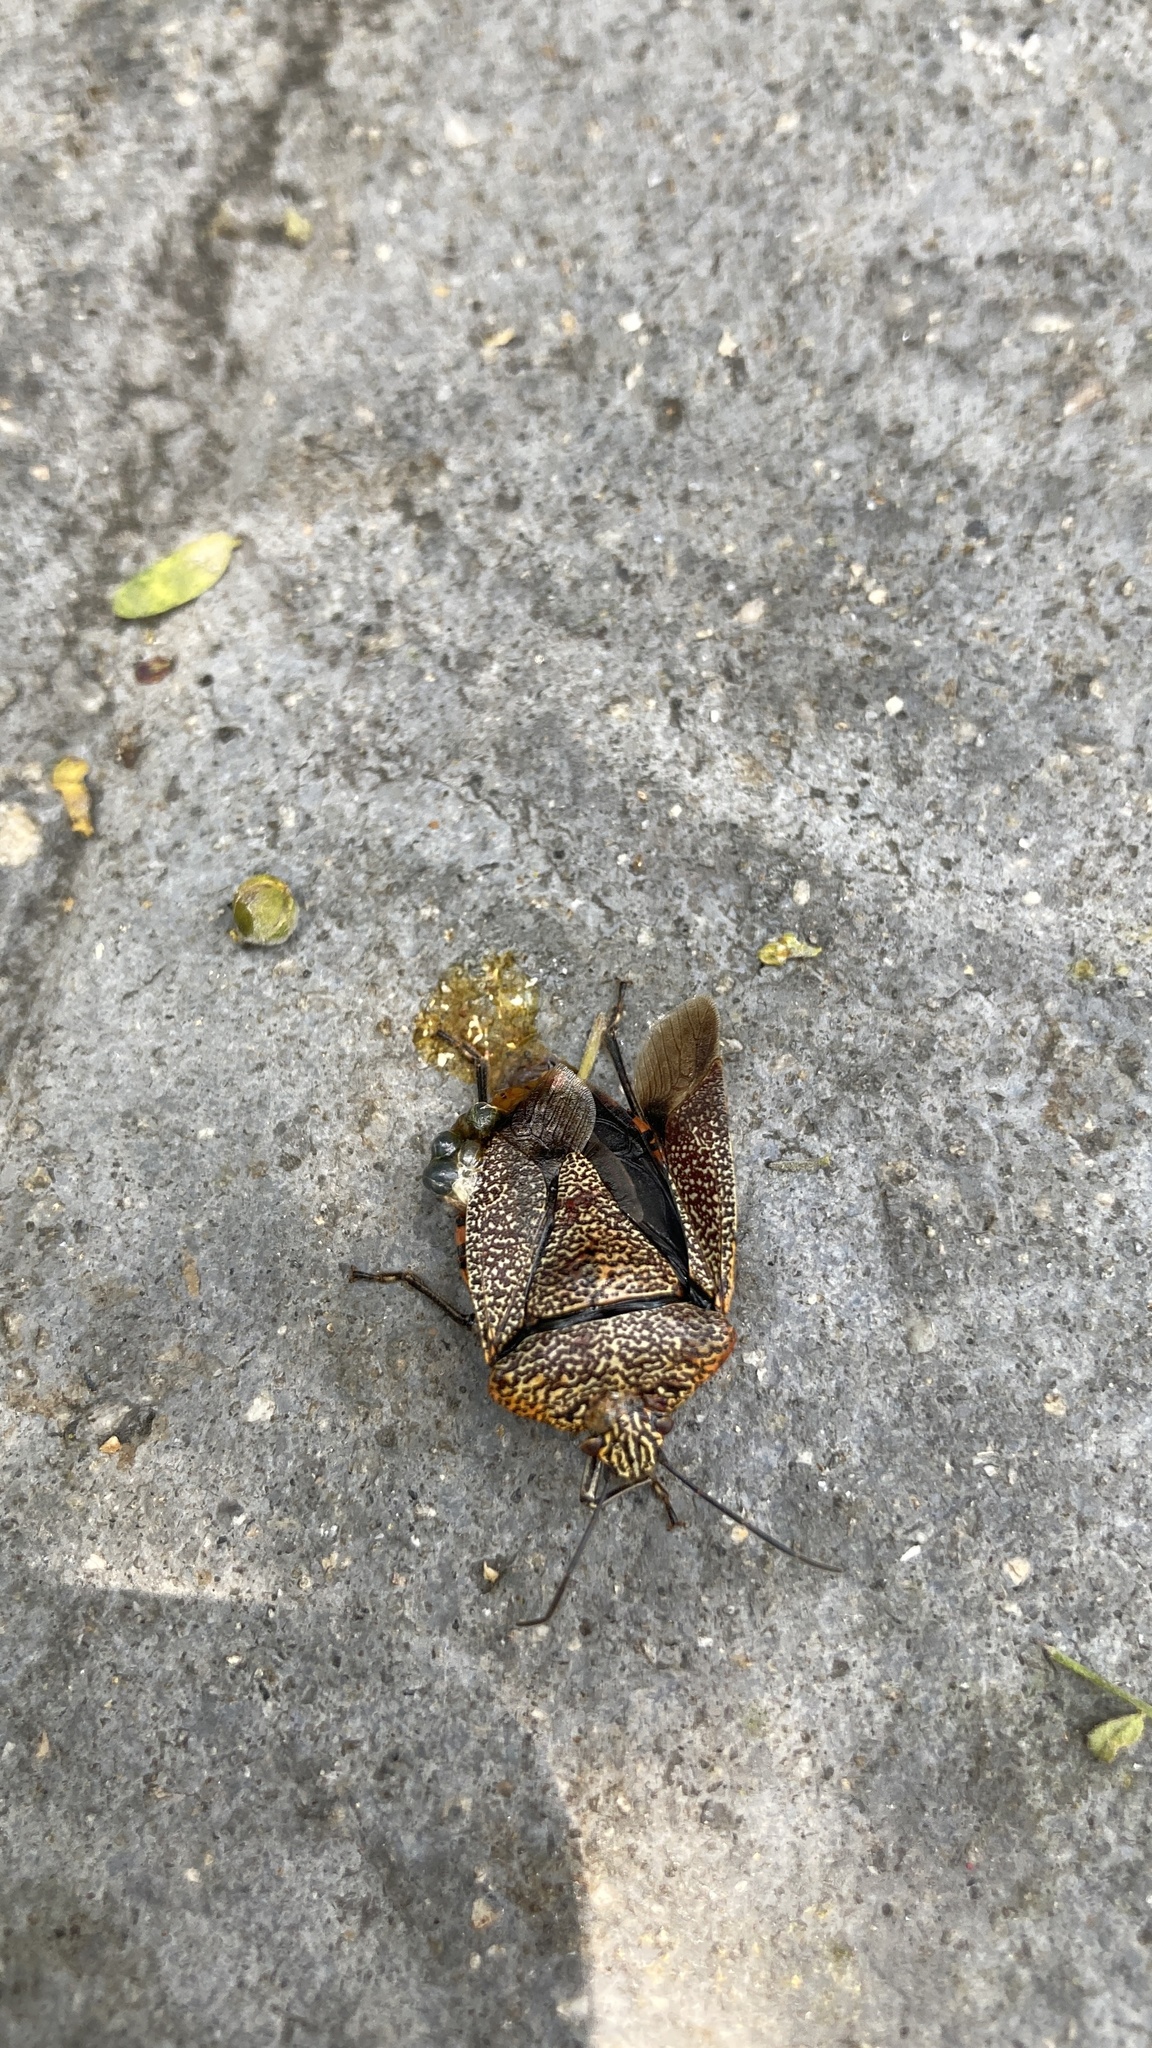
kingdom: Animalia
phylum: Arthropoda
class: Insecta
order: Hemiptera
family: Pentatomidae
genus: Pellaea
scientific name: Pellaea stictica
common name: Stink bug
